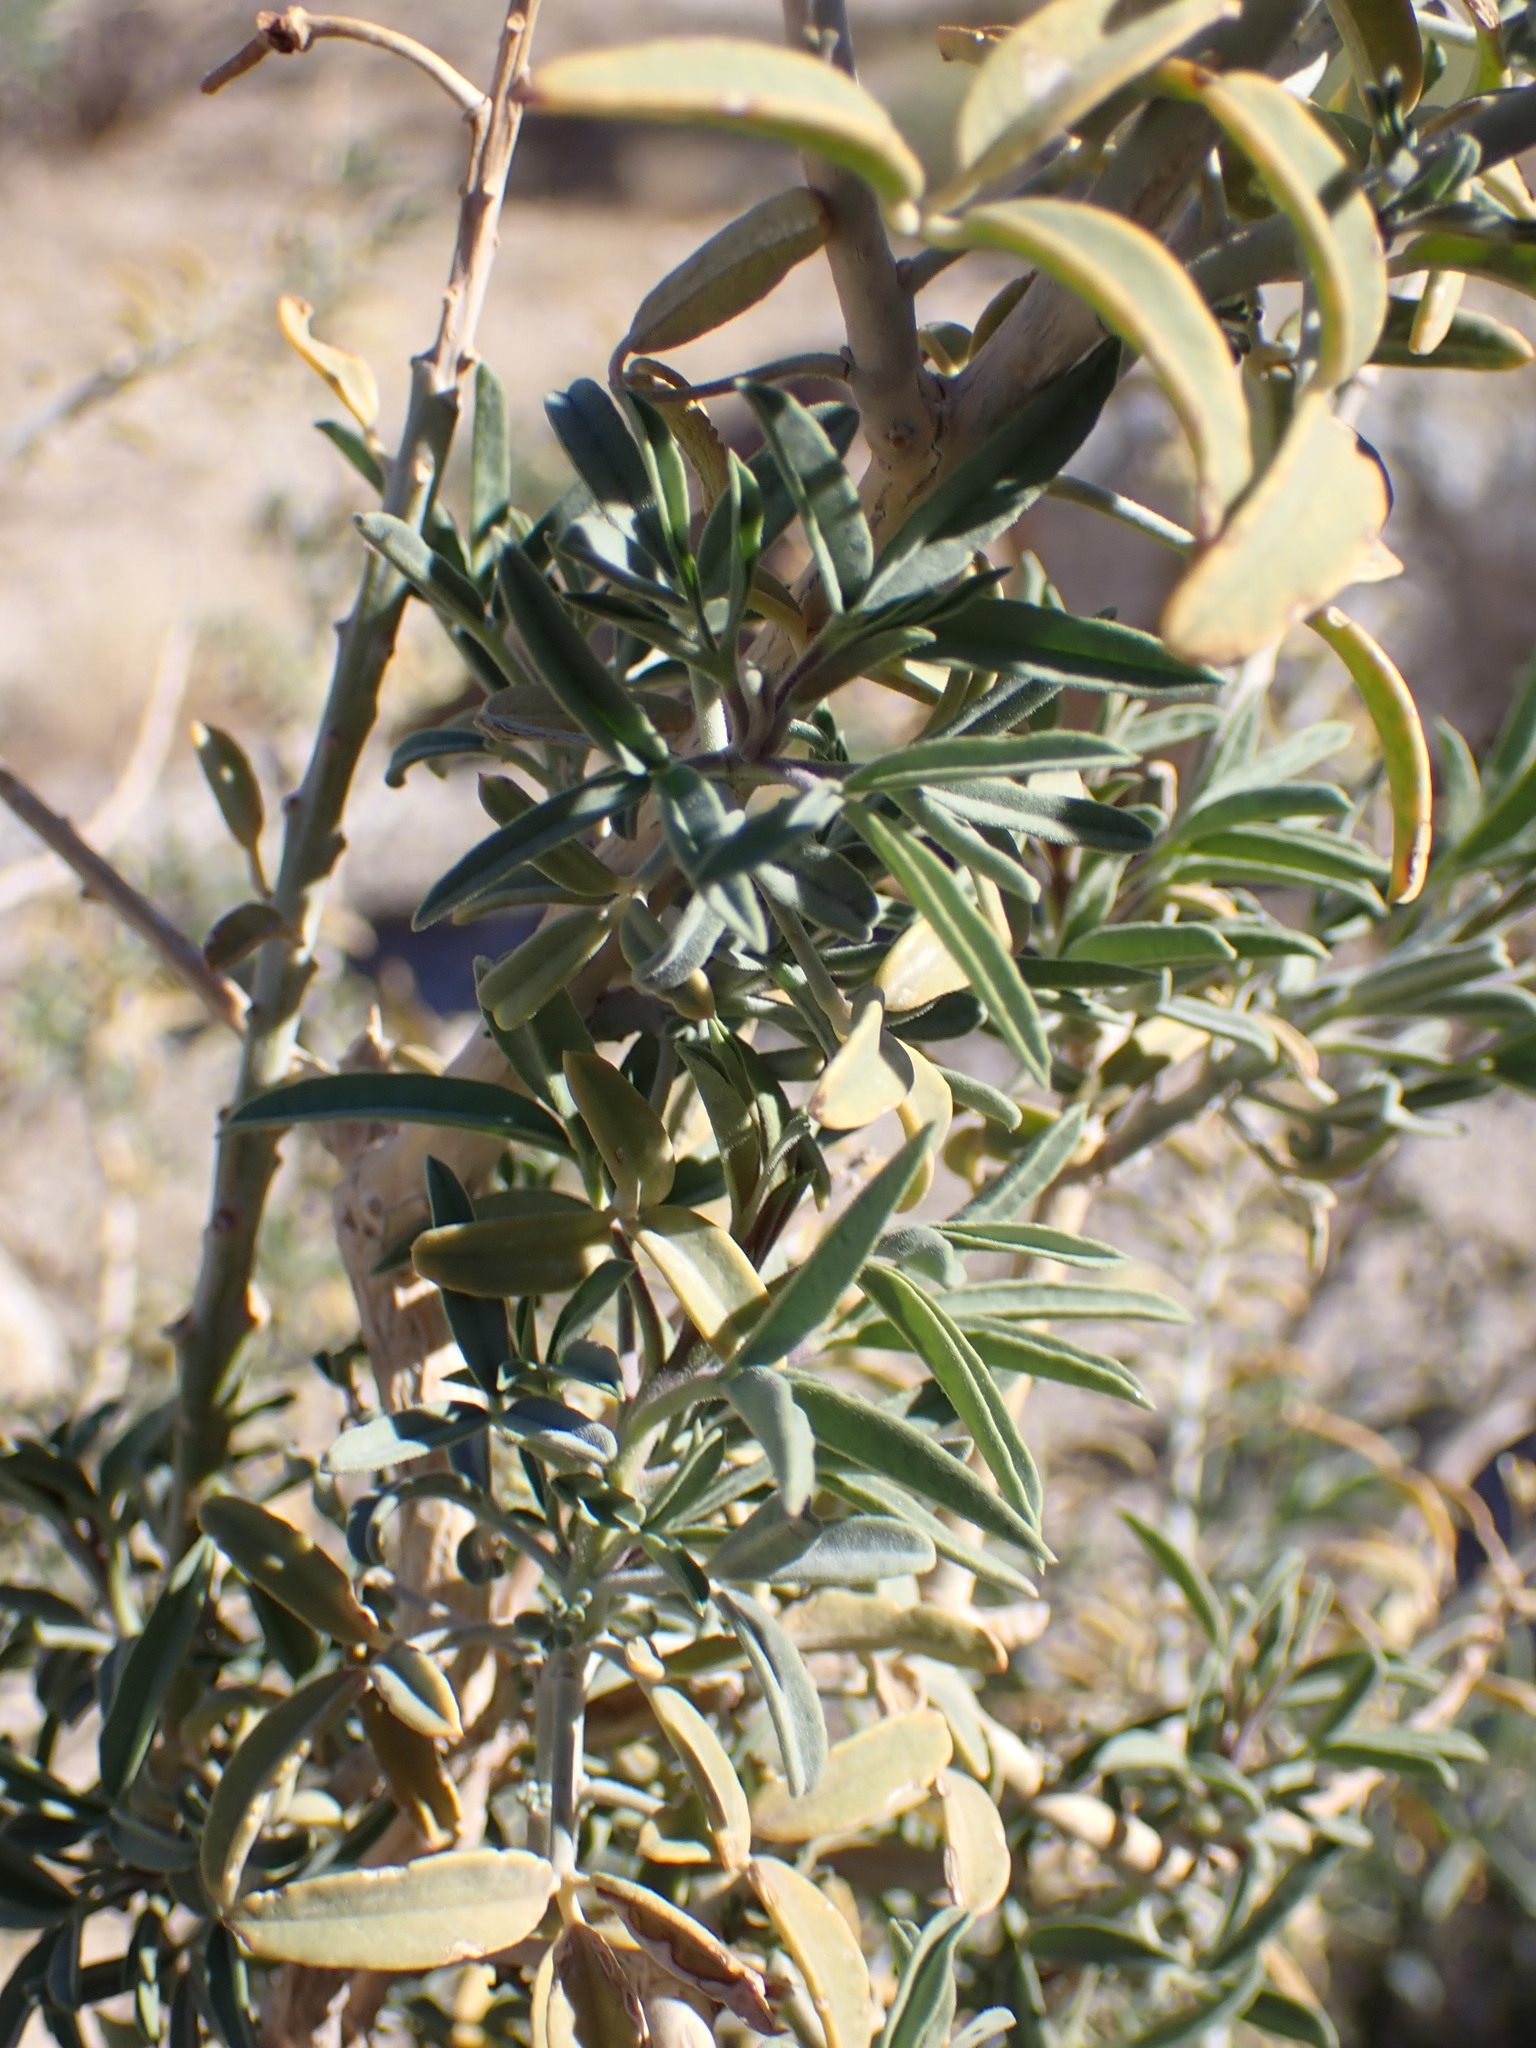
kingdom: Plantae
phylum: Tracheophyta
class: Magnoliopsida
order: Brassicales
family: Cleomaceae
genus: Cleomella
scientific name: Cleomella arborea
